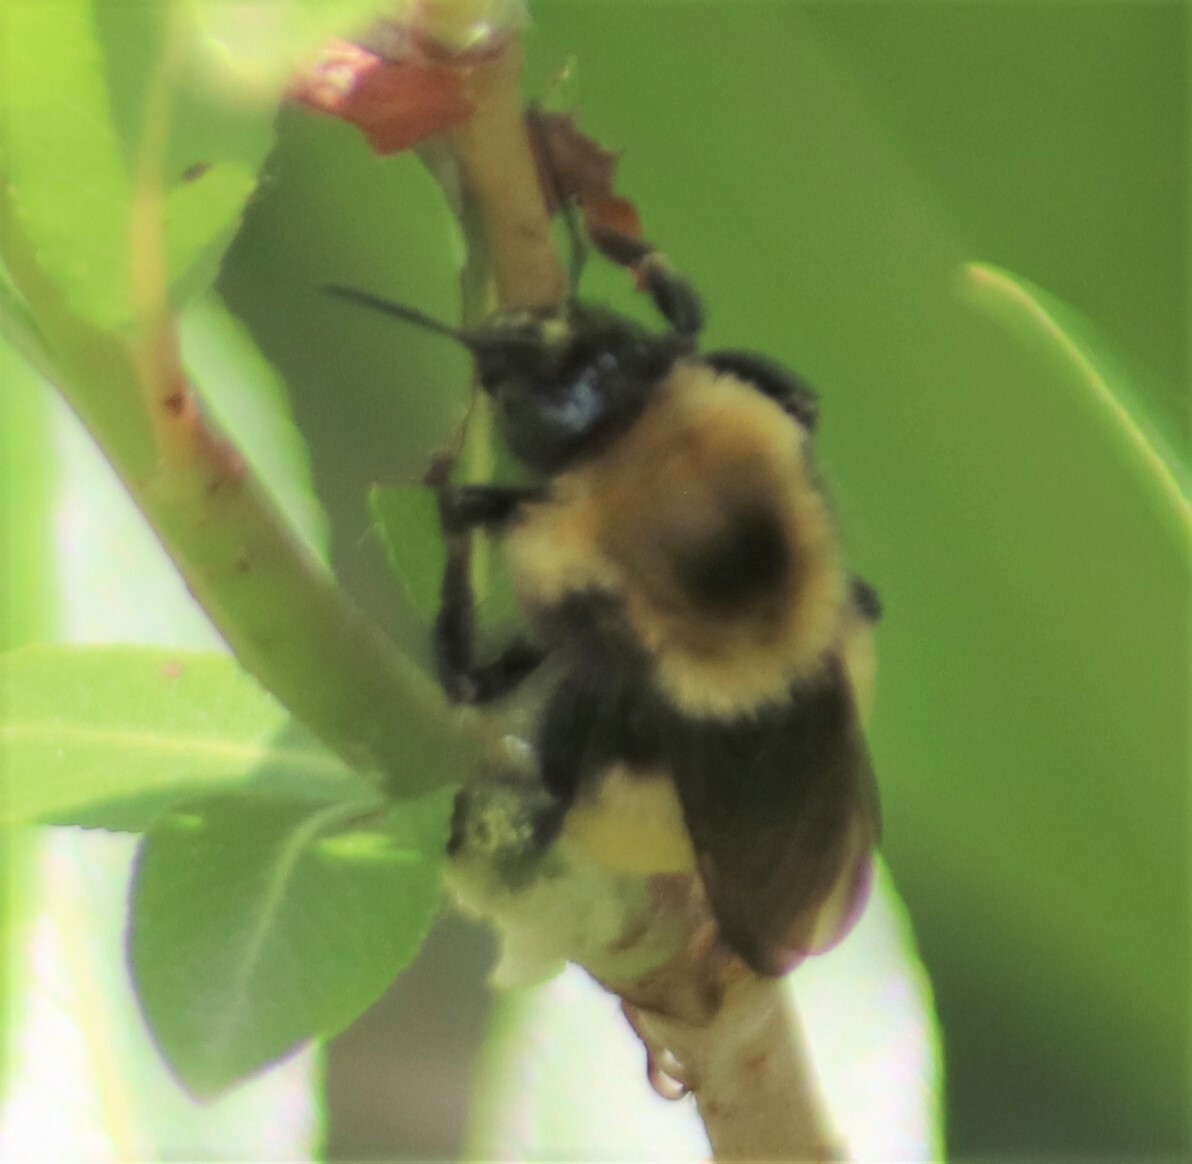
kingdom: Animalia
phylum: Arthropoda
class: Insecta
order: Hymenoptera
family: Apidae
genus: Bombus
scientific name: Bombus nevadensis
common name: Nevada bumble bee
